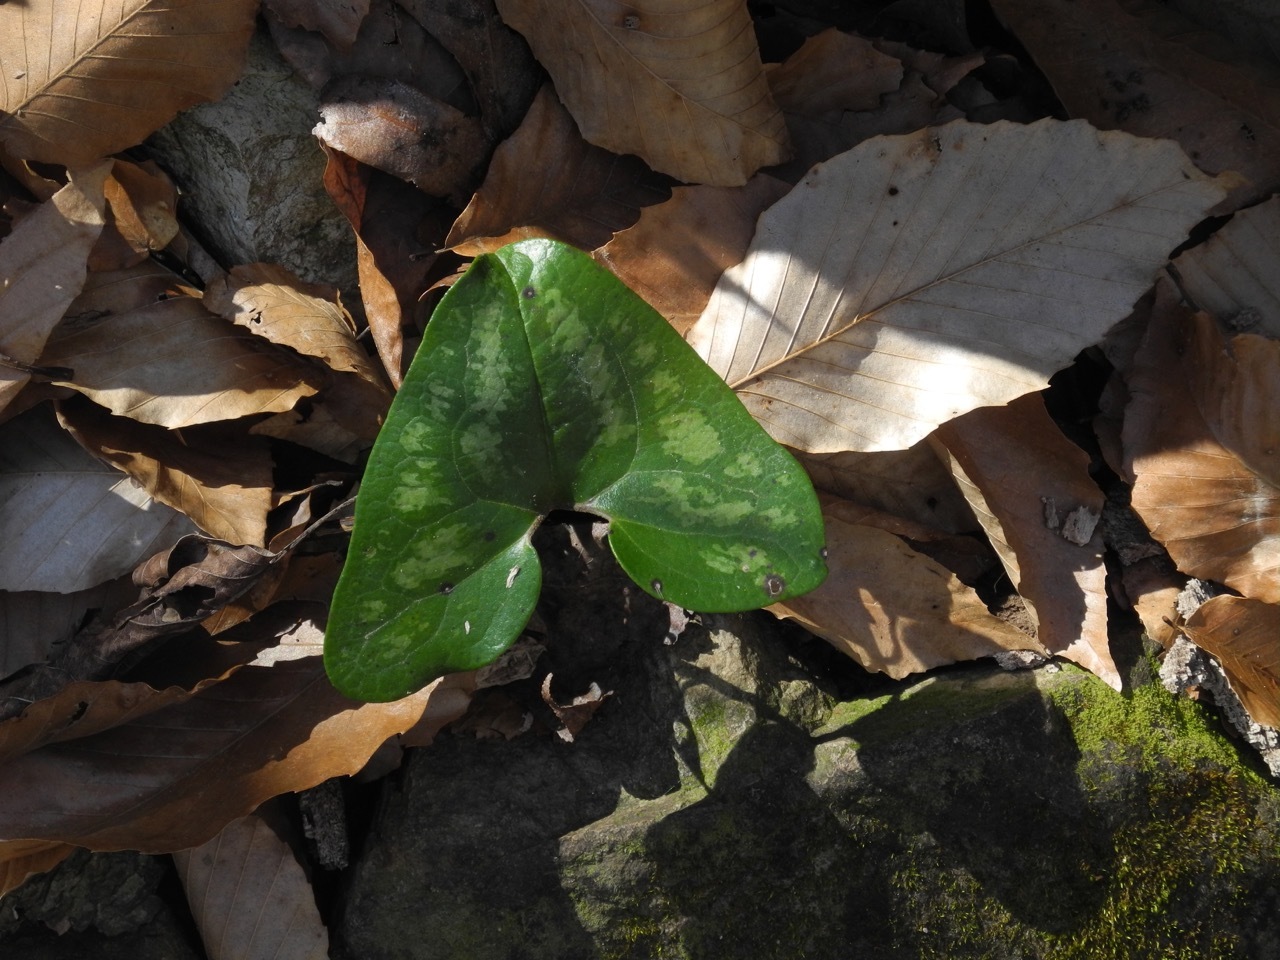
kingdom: Plantae
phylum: Tracheophyta
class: Magnoliopsida
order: Piperales
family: Aristolochiaceae
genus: Hexastylis
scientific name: Hexastylis arifolia
